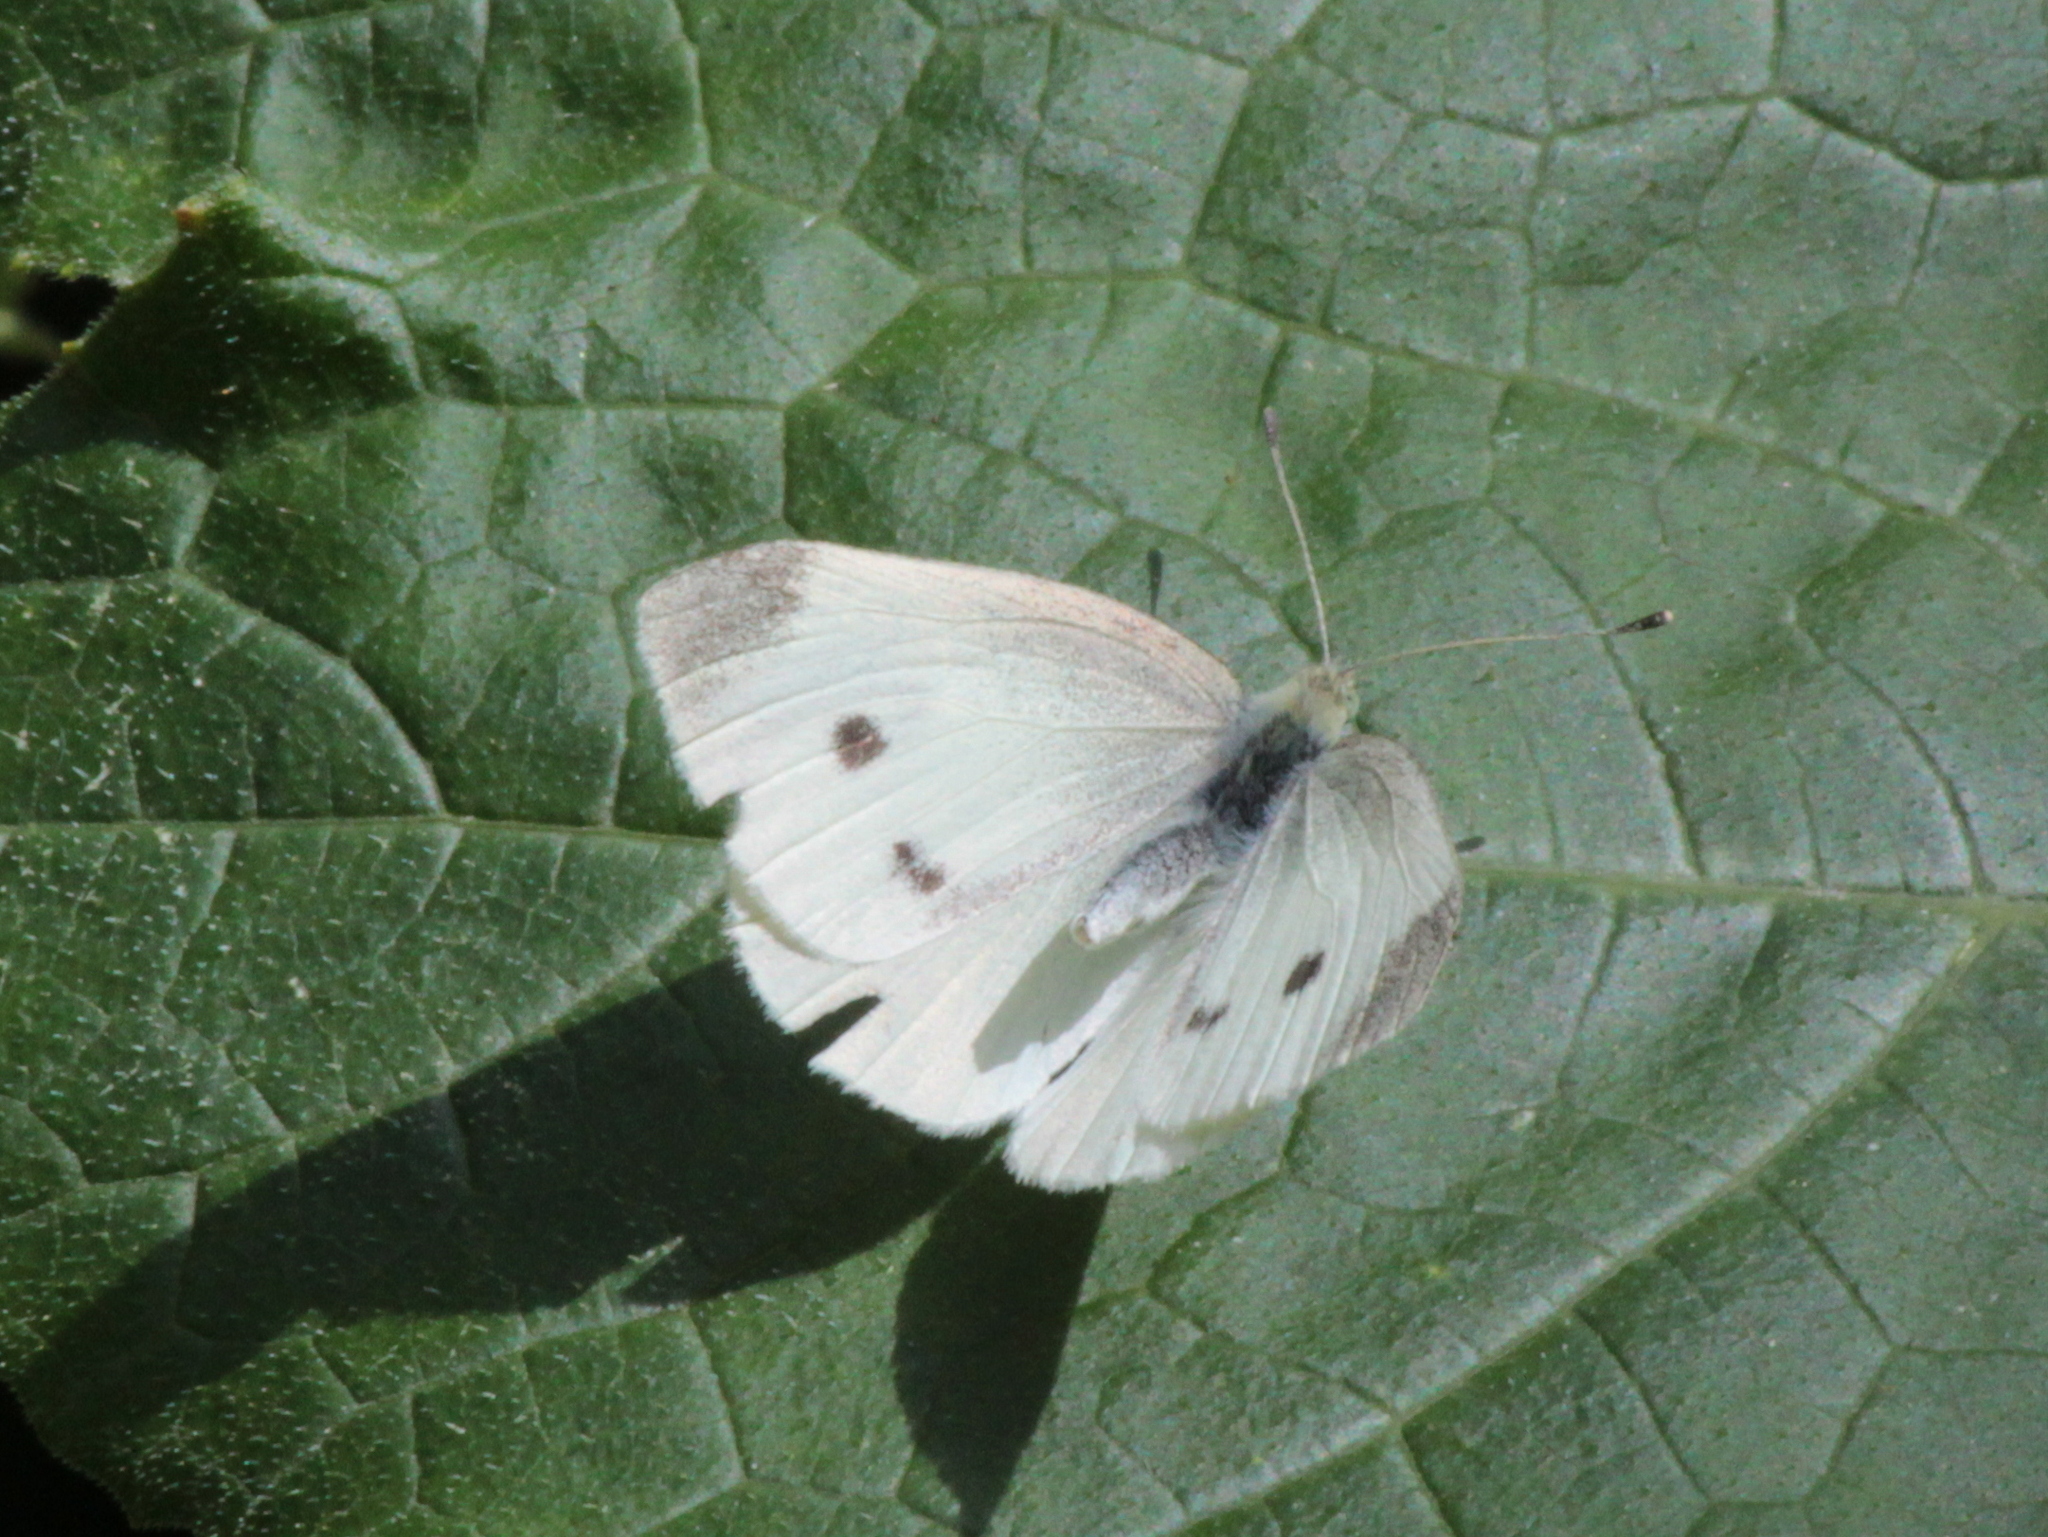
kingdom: Animalia
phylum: Arthropoda
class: Insecta
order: Lepidoptera
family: Pieridae
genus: Pieris
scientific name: Pieris rapae
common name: Small white
